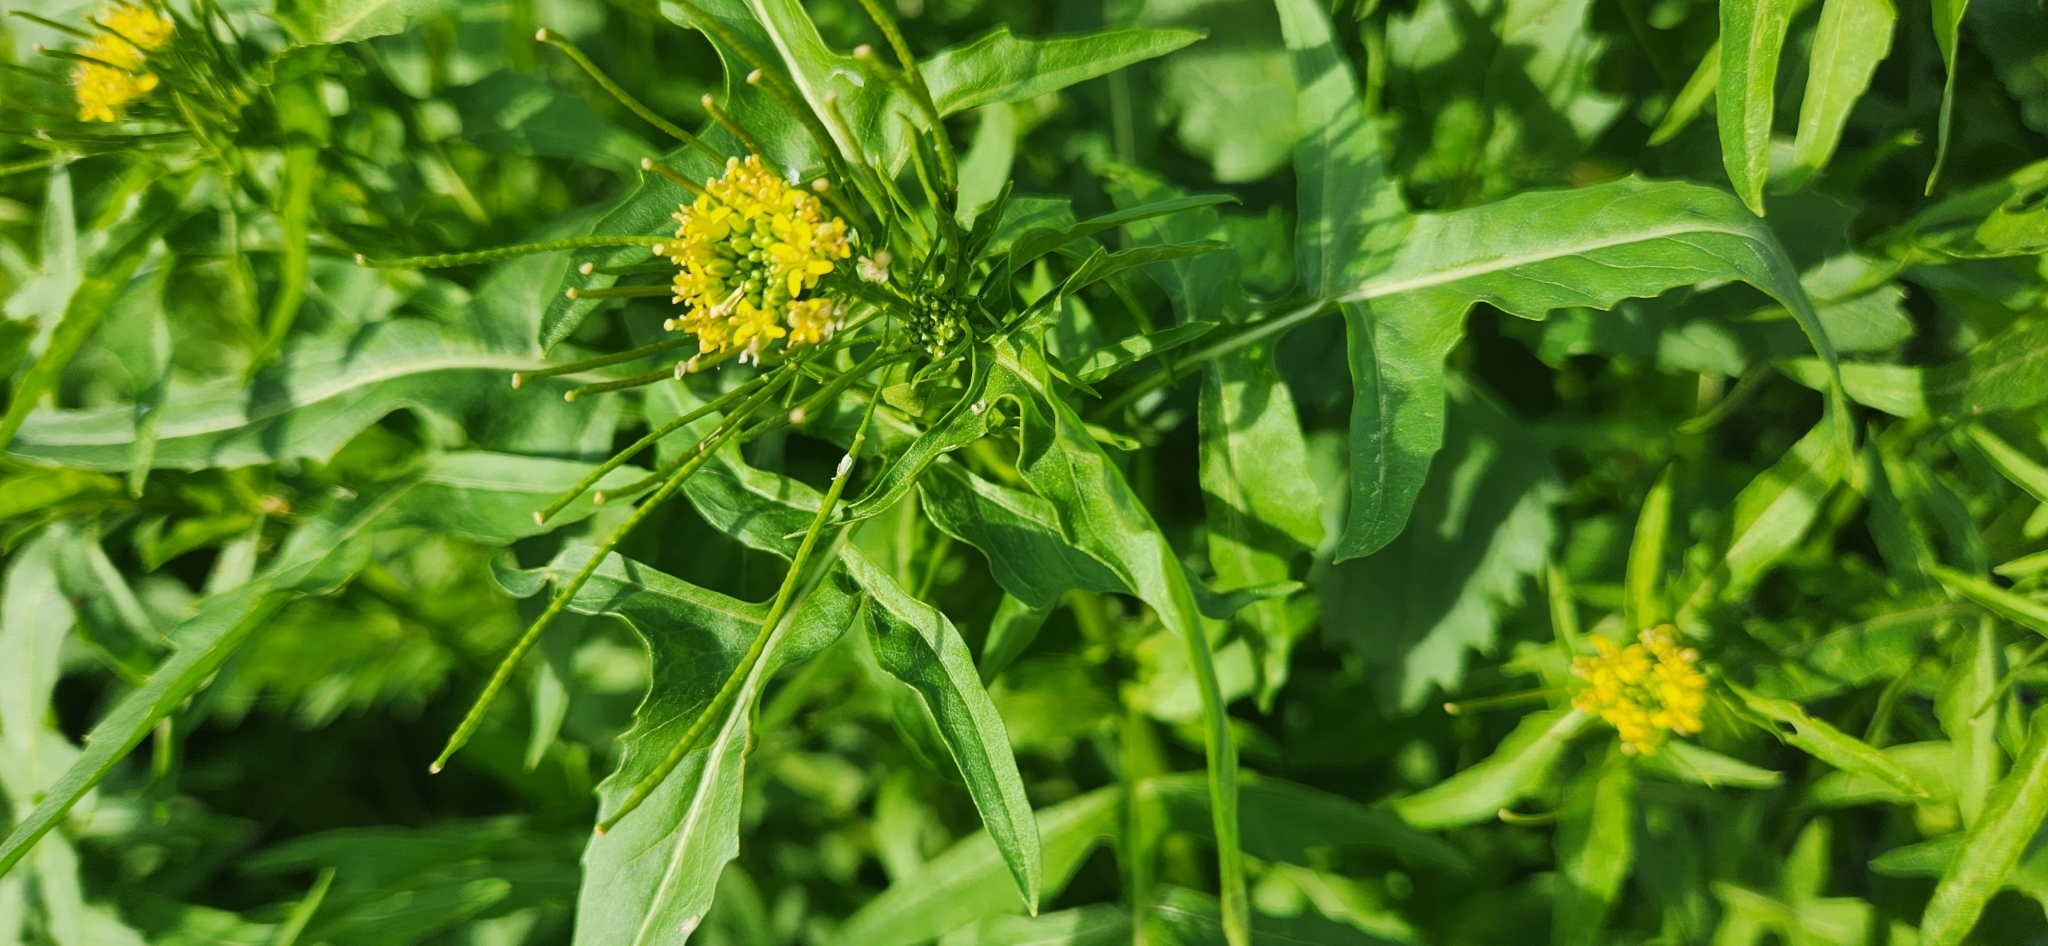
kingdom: Plantae
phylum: Tracheophyta
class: Magnoliopsida
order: Brassicales
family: Brassicaceae
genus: Sisymbrium
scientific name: Sisymbrium irio
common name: London rocket
